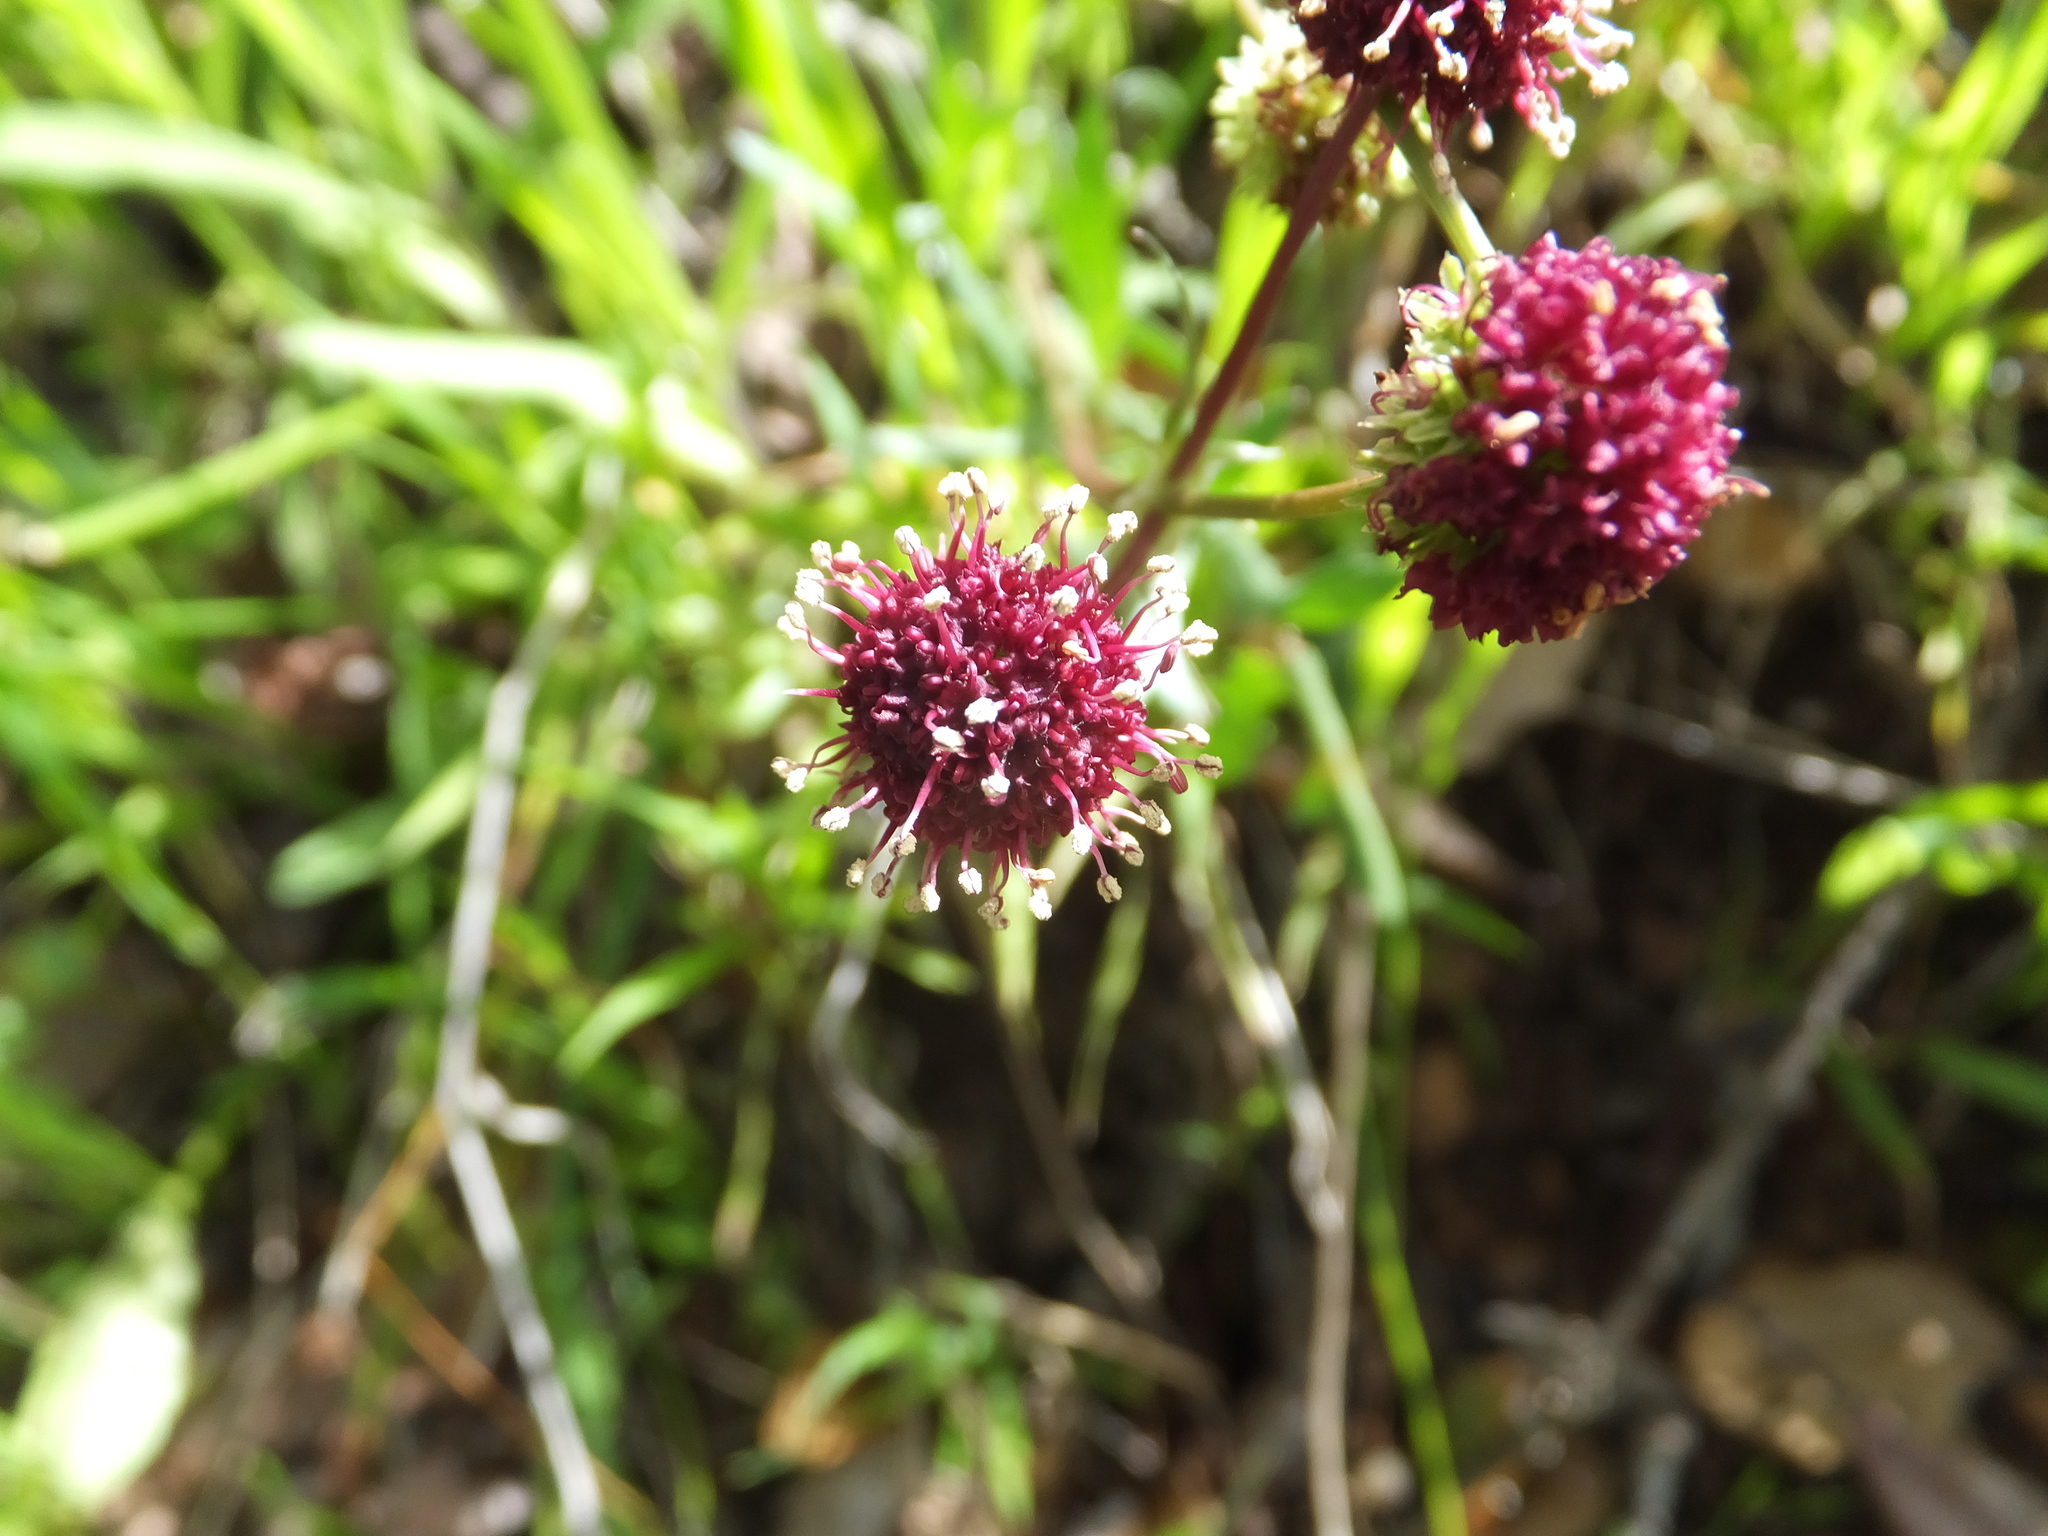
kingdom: Plantae
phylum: Tracheophyta
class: Magnoliopsida
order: Apiales
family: Apiaceae
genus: Sanicula
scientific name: Sanicula bipinnatifida
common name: Shoe-buttons
